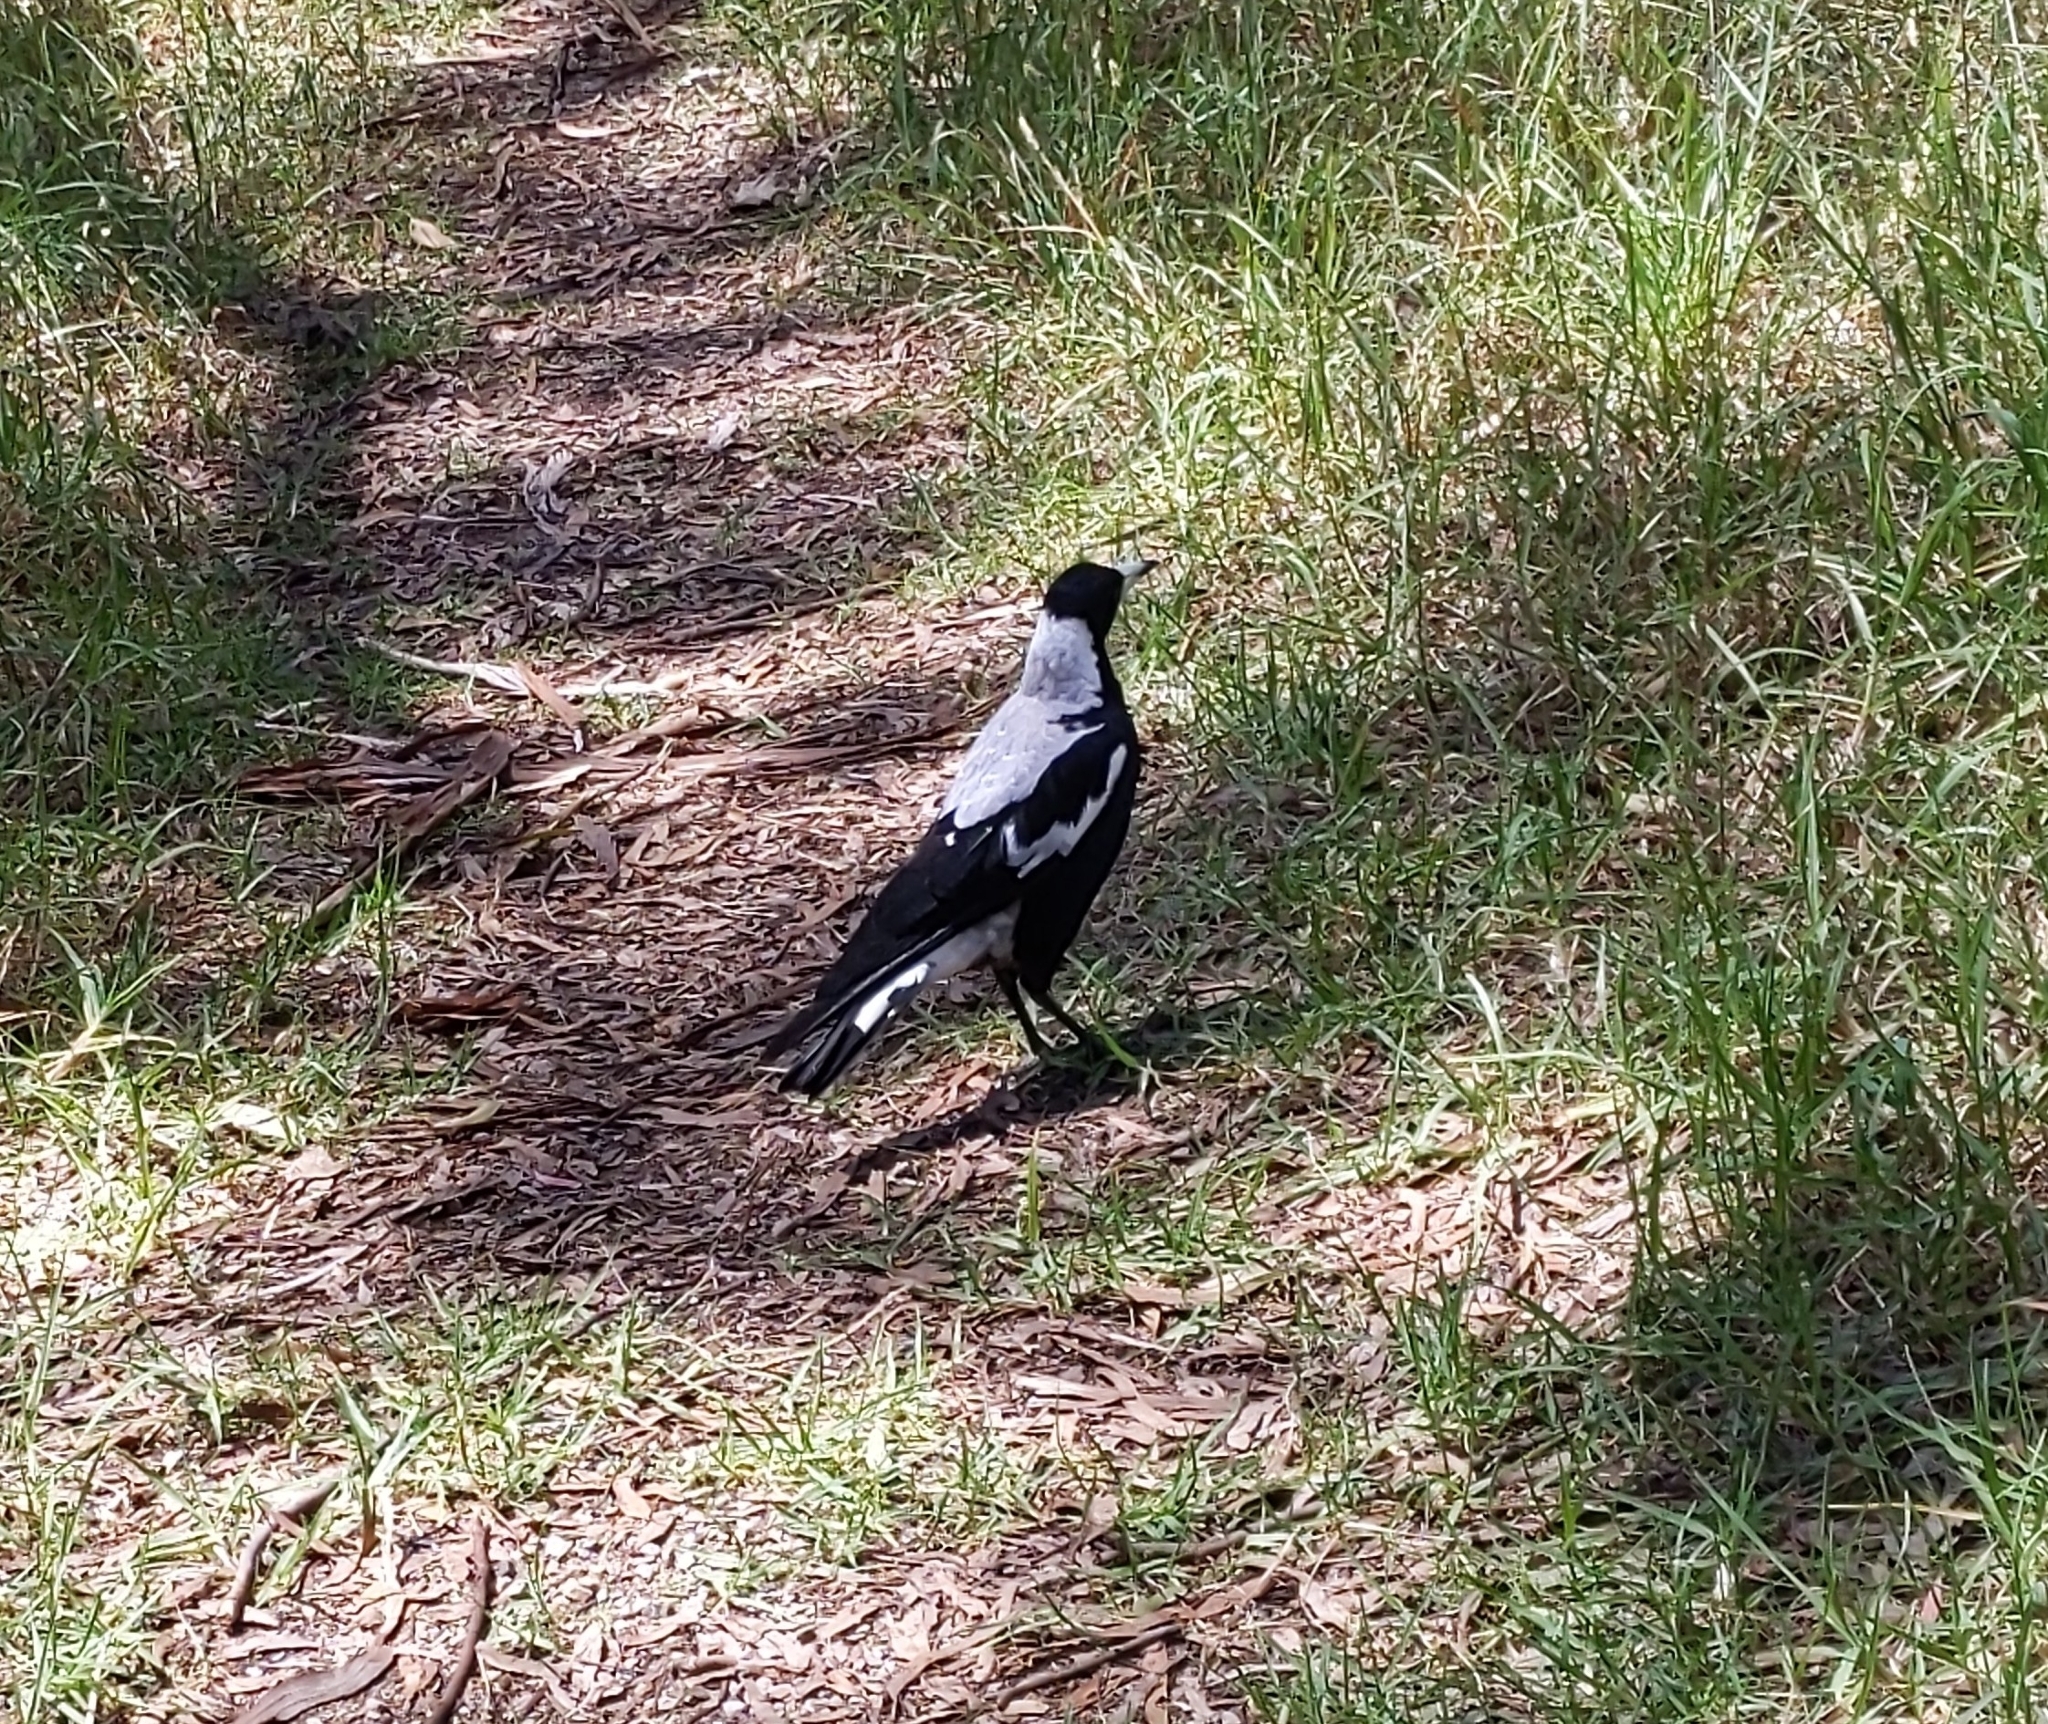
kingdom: Animalia
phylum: Chordata
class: Aves
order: Passeriformes
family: Cracticidae
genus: Gymnorhina
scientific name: Gymnorhina tibicen
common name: Australian magpie
